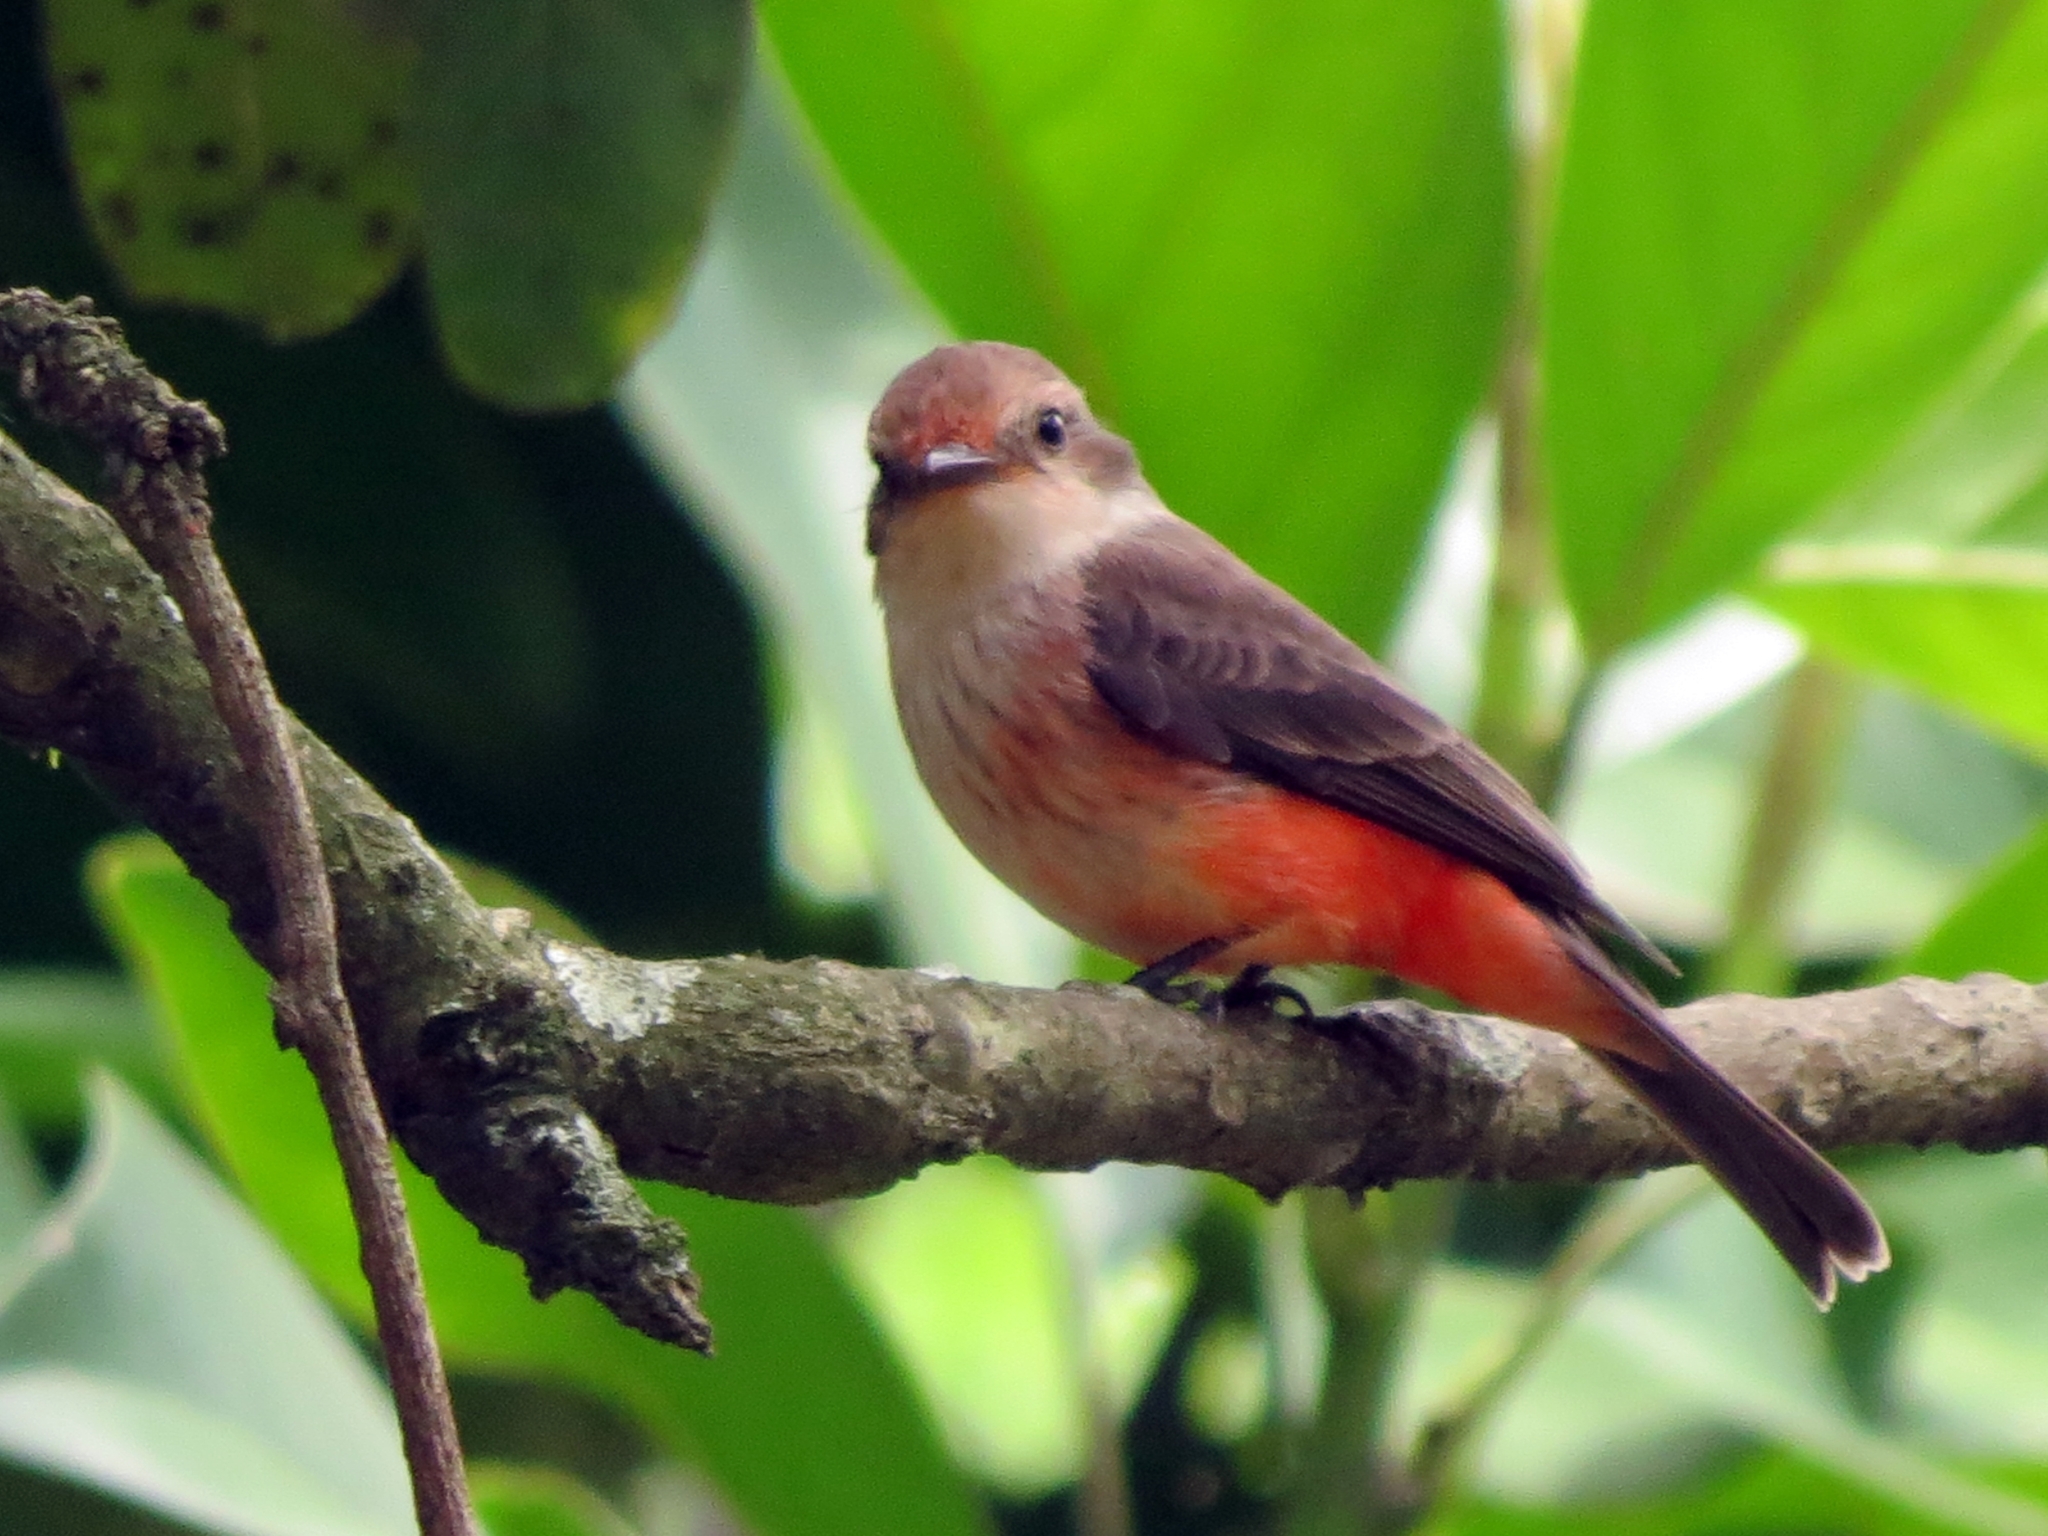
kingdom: Animalia
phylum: Chordata
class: Aves
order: Passeriformes
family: Tyrannidae
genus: Pyrocephalus
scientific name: Pyrocephalus rubinus
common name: Vermilion flycatcher
